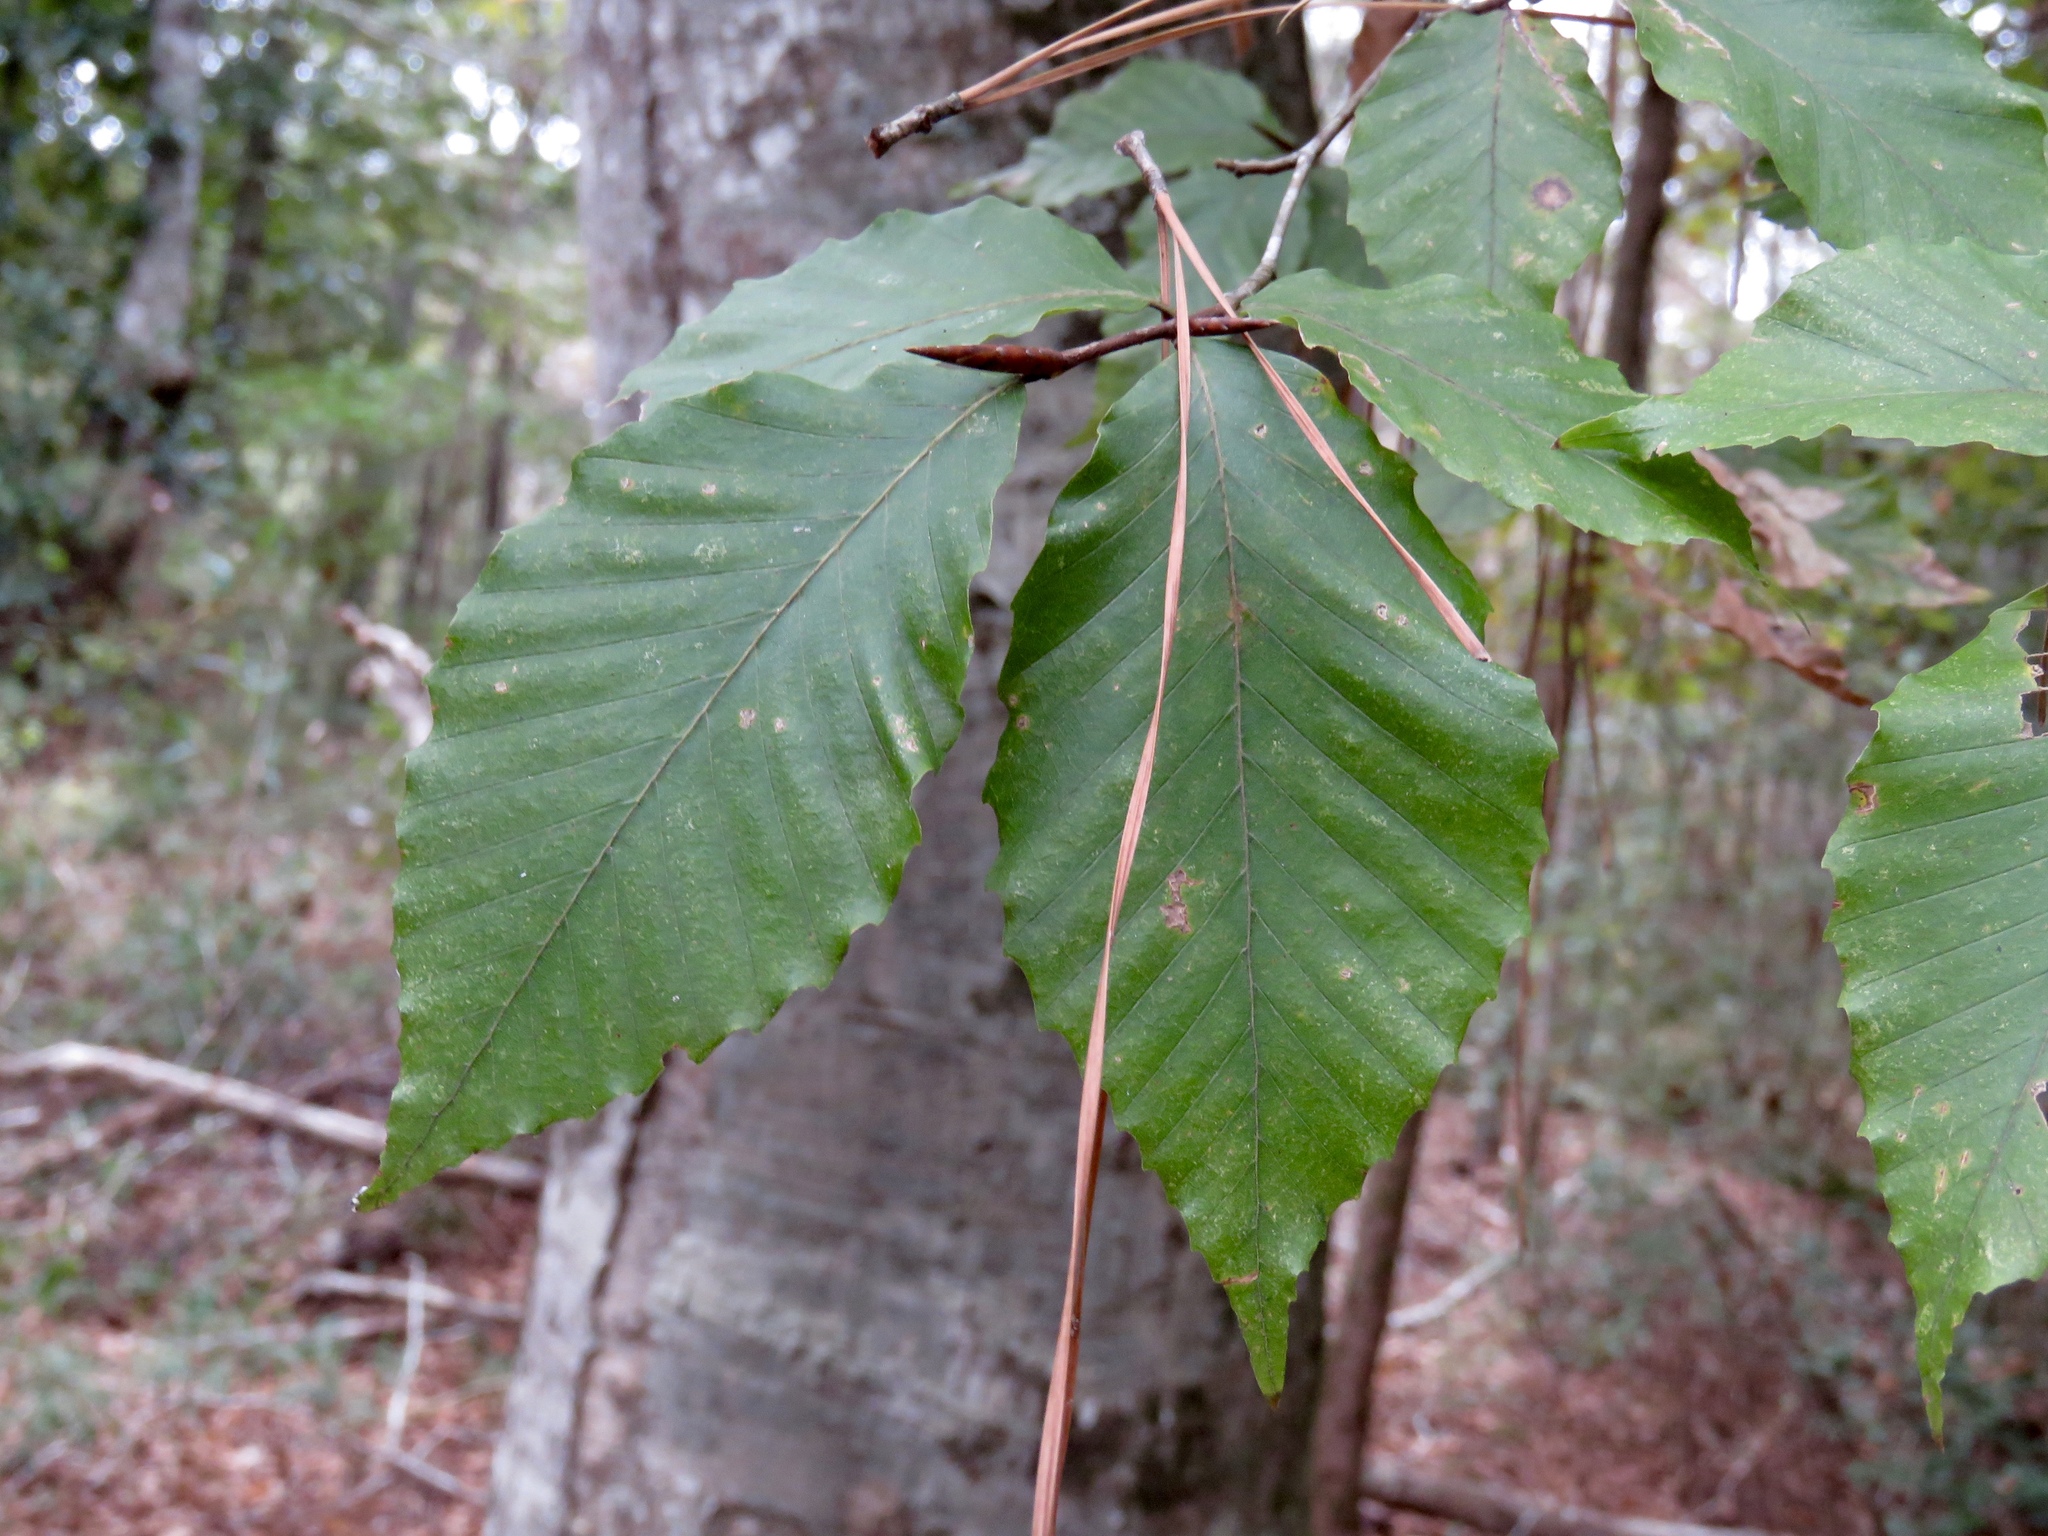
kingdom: Plantae
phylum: Tracheophyta
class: Magnoliopsida
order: Fagales
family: Fagaceae
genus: Fagus
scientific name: Fagus grandifolia
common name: American beech
